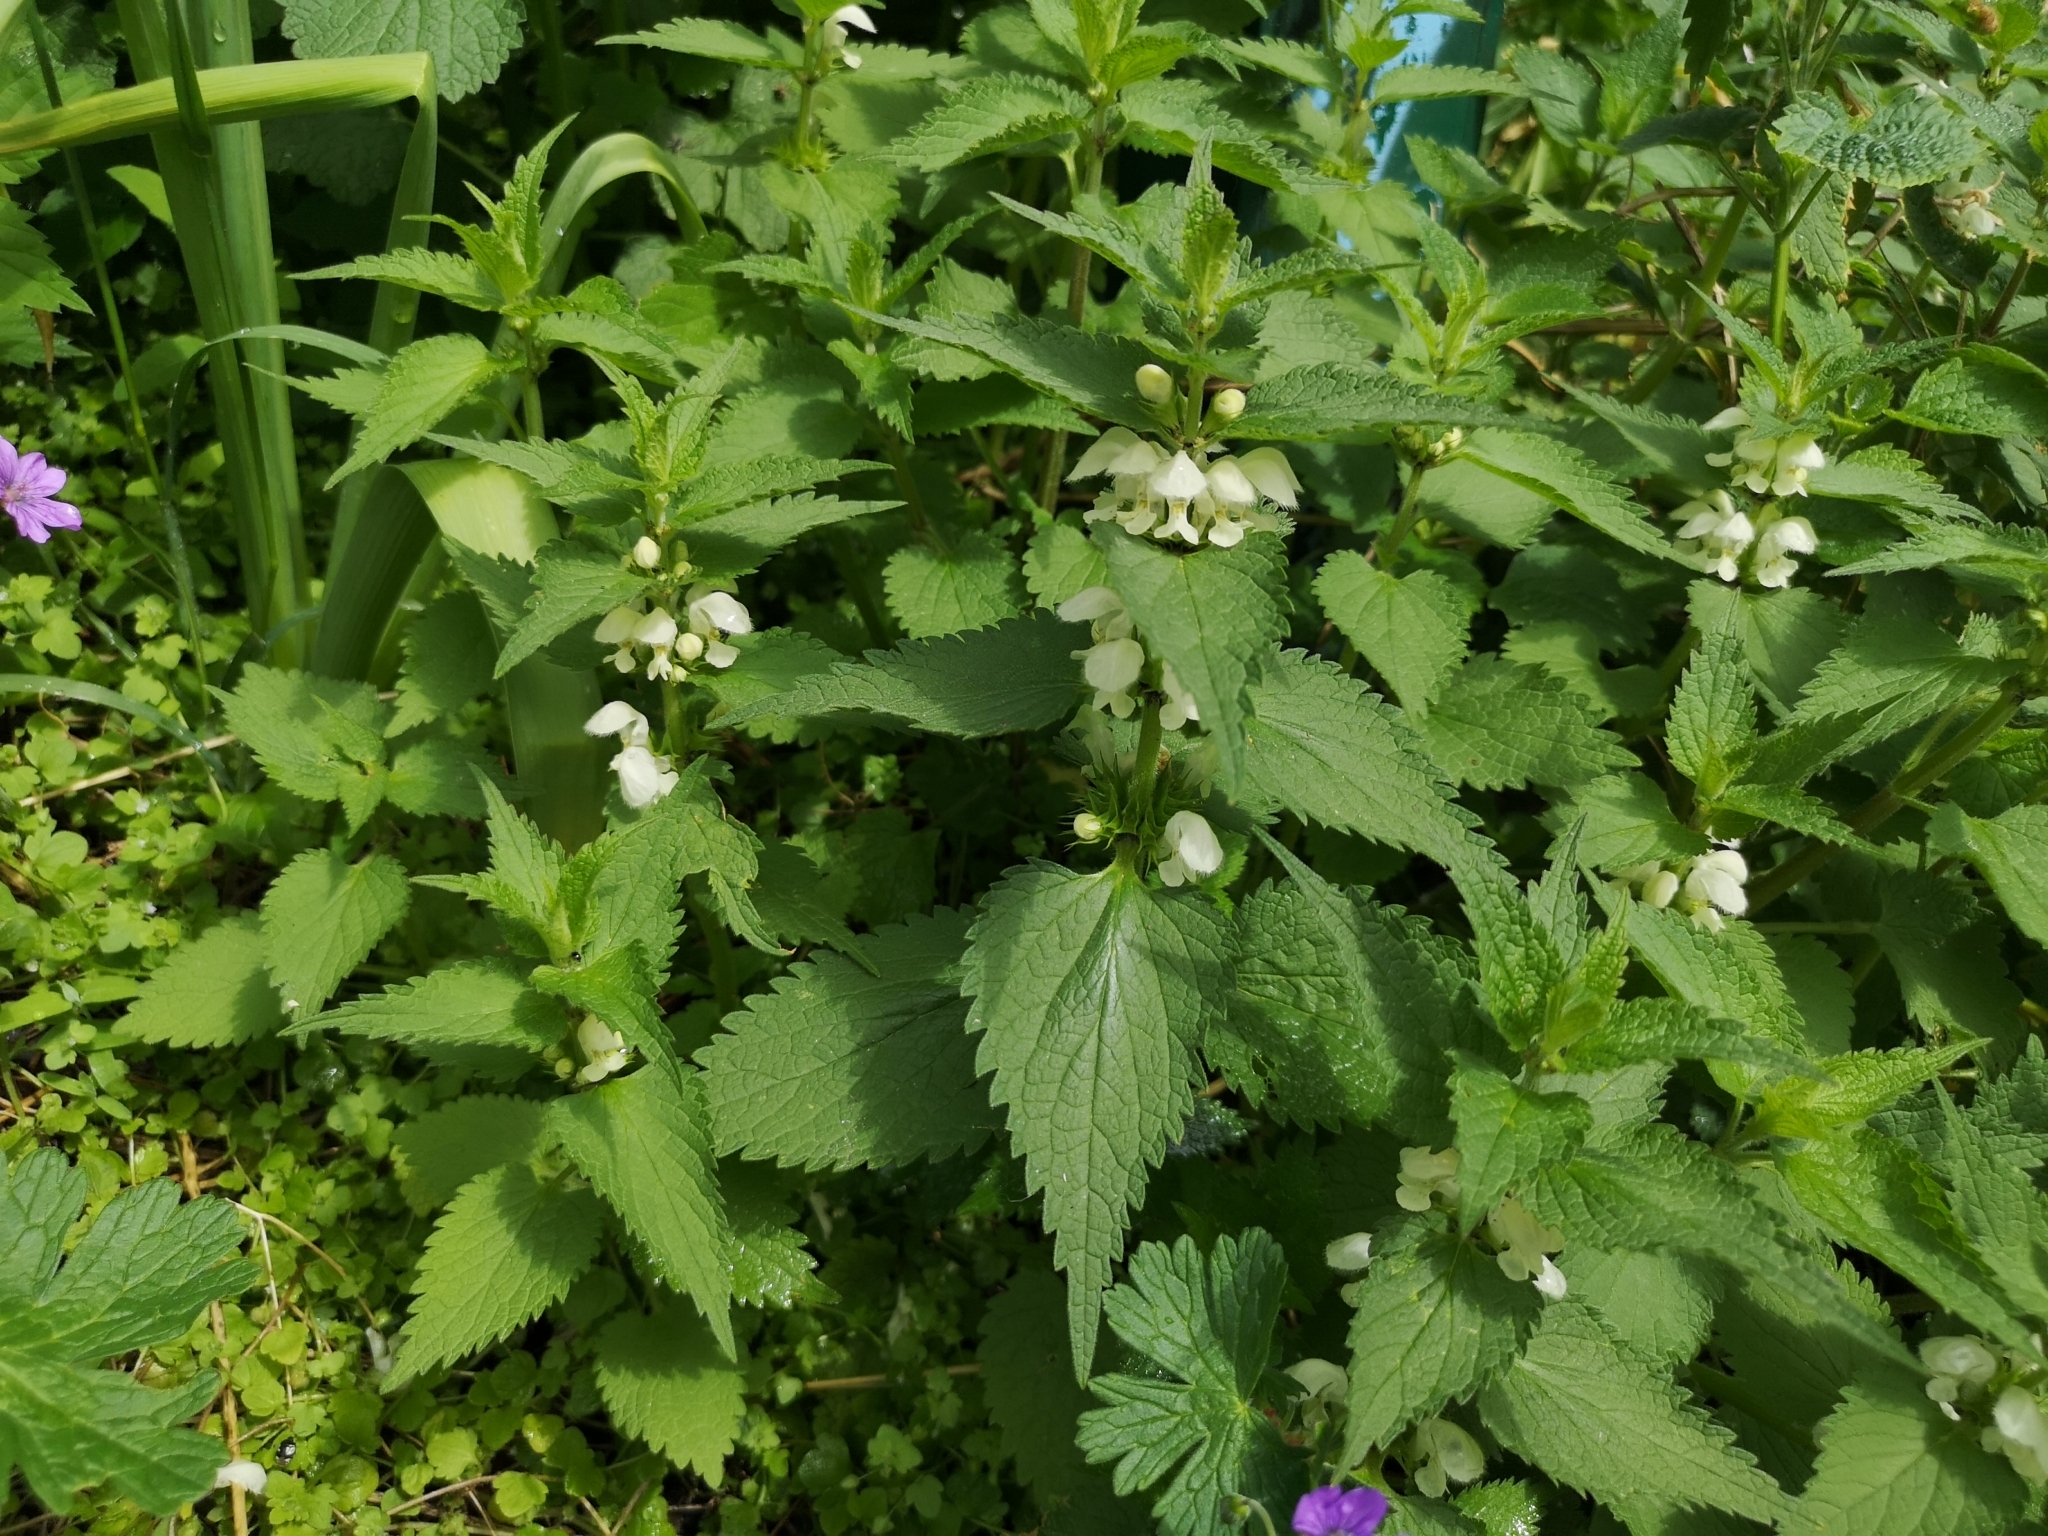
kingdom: Plantae
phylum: Tracheophyta
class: Magnoliopsida
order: Lamiales
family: Lamiaceae
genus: Lamium
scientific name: Lamium album
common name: White dead-nettle
